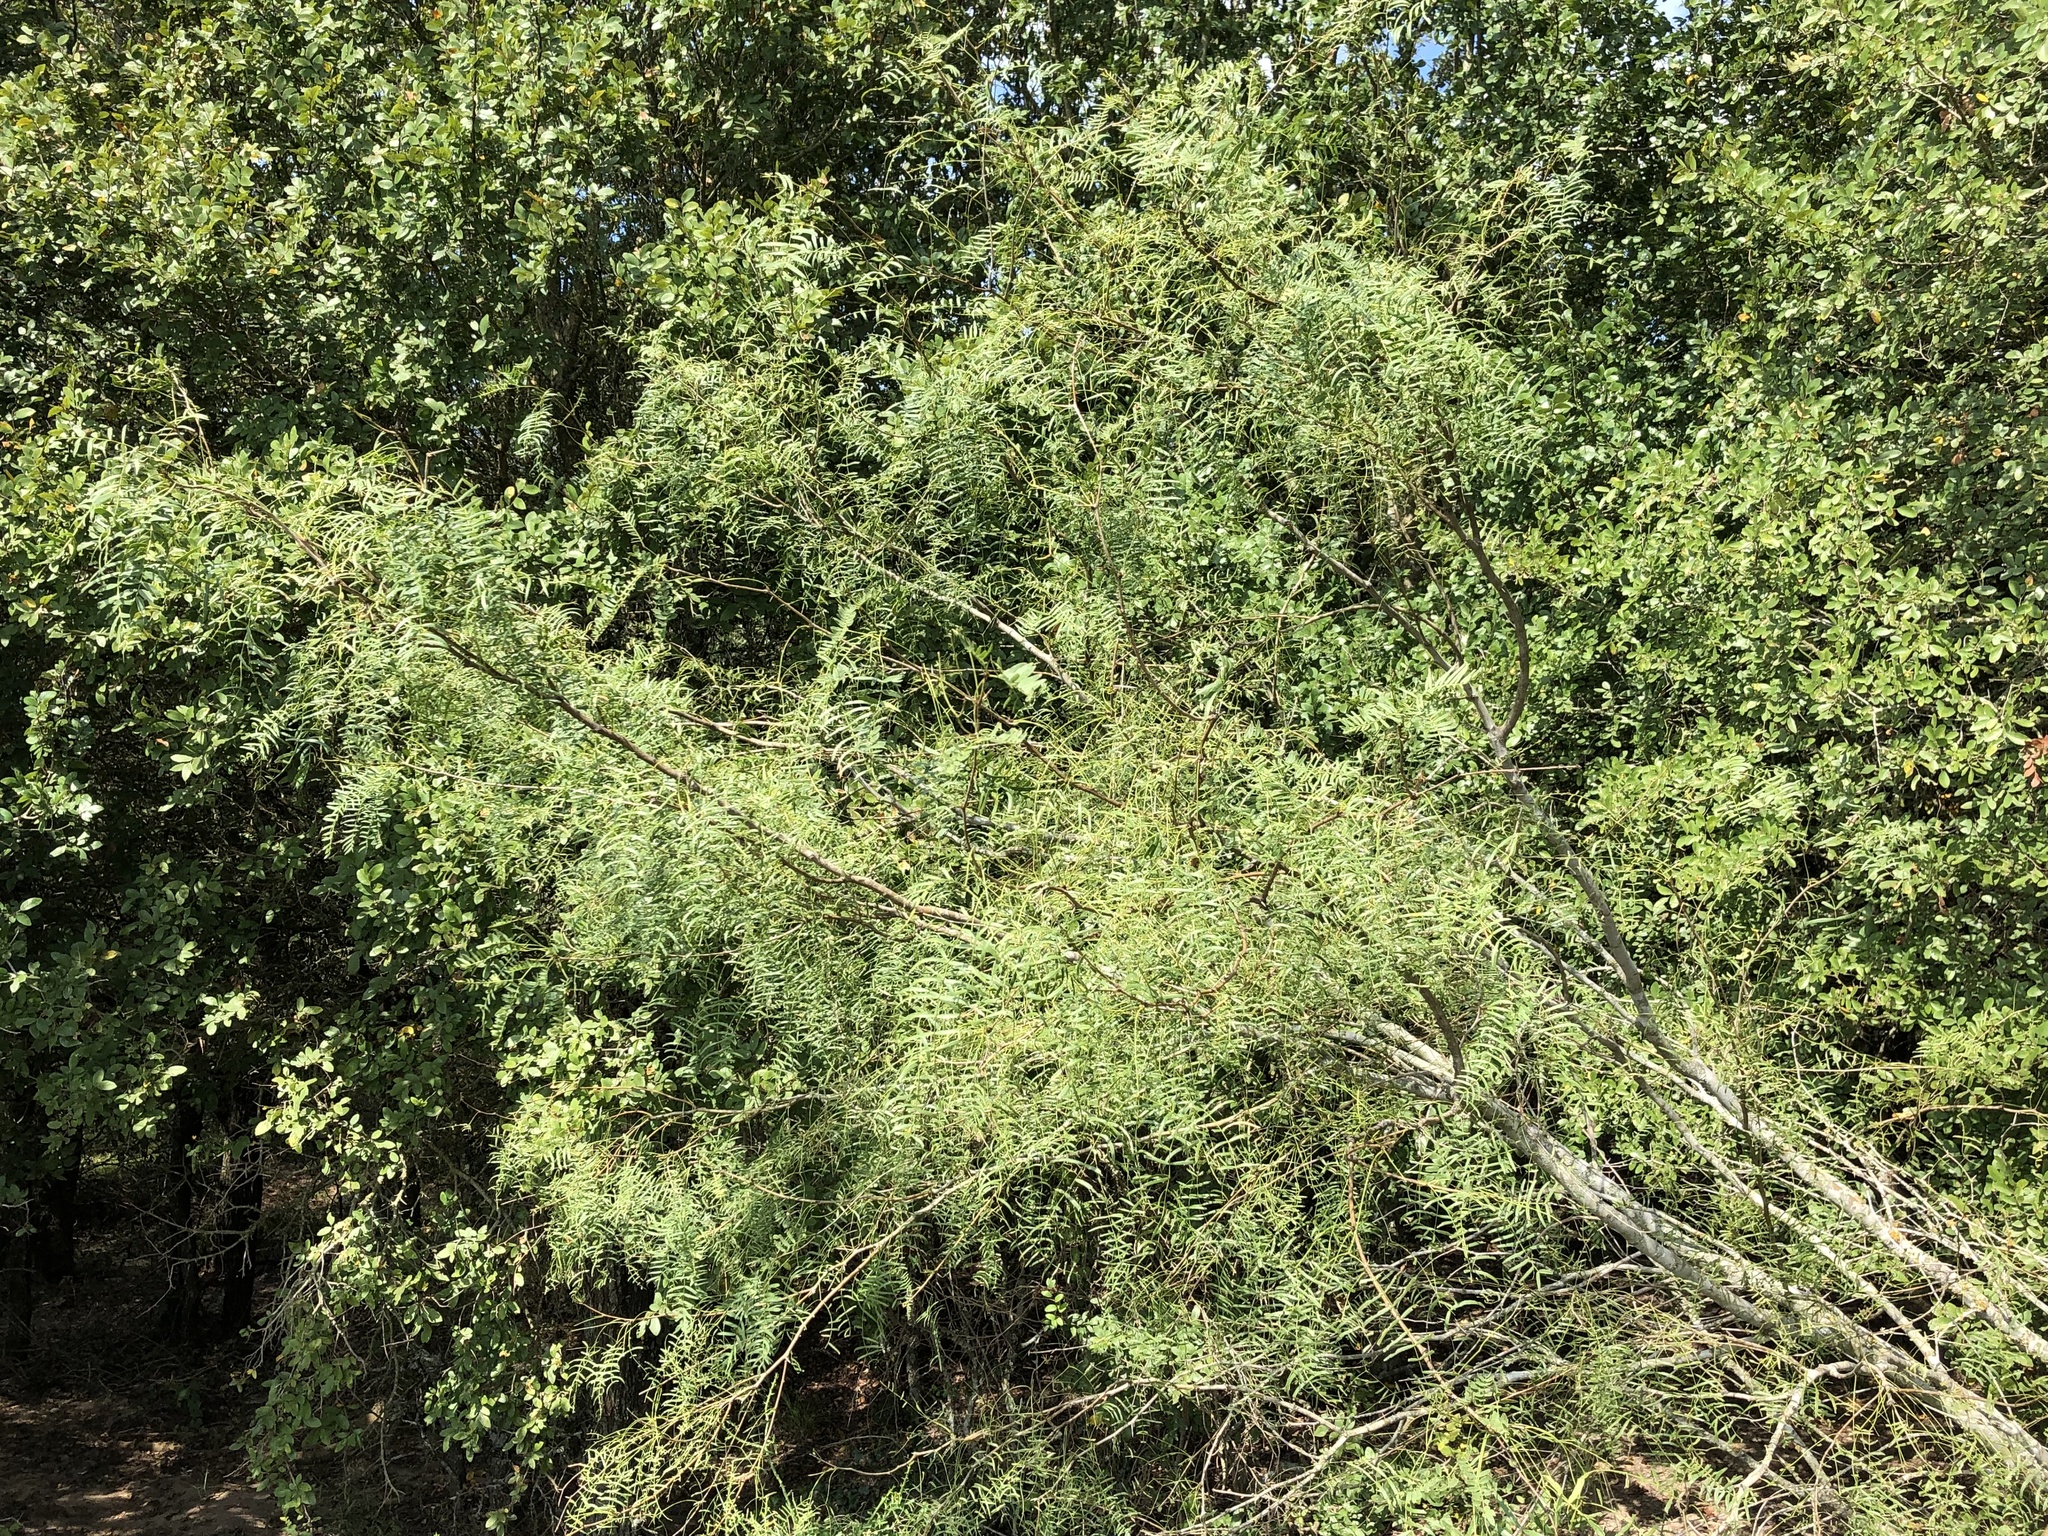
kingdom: Plantae
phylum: Tracheophyta
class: Magnoliopsida
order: Fabales
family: Fabaceae
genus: Prosopis
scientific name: Prosopis glandulosa
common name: Honey mesquite
